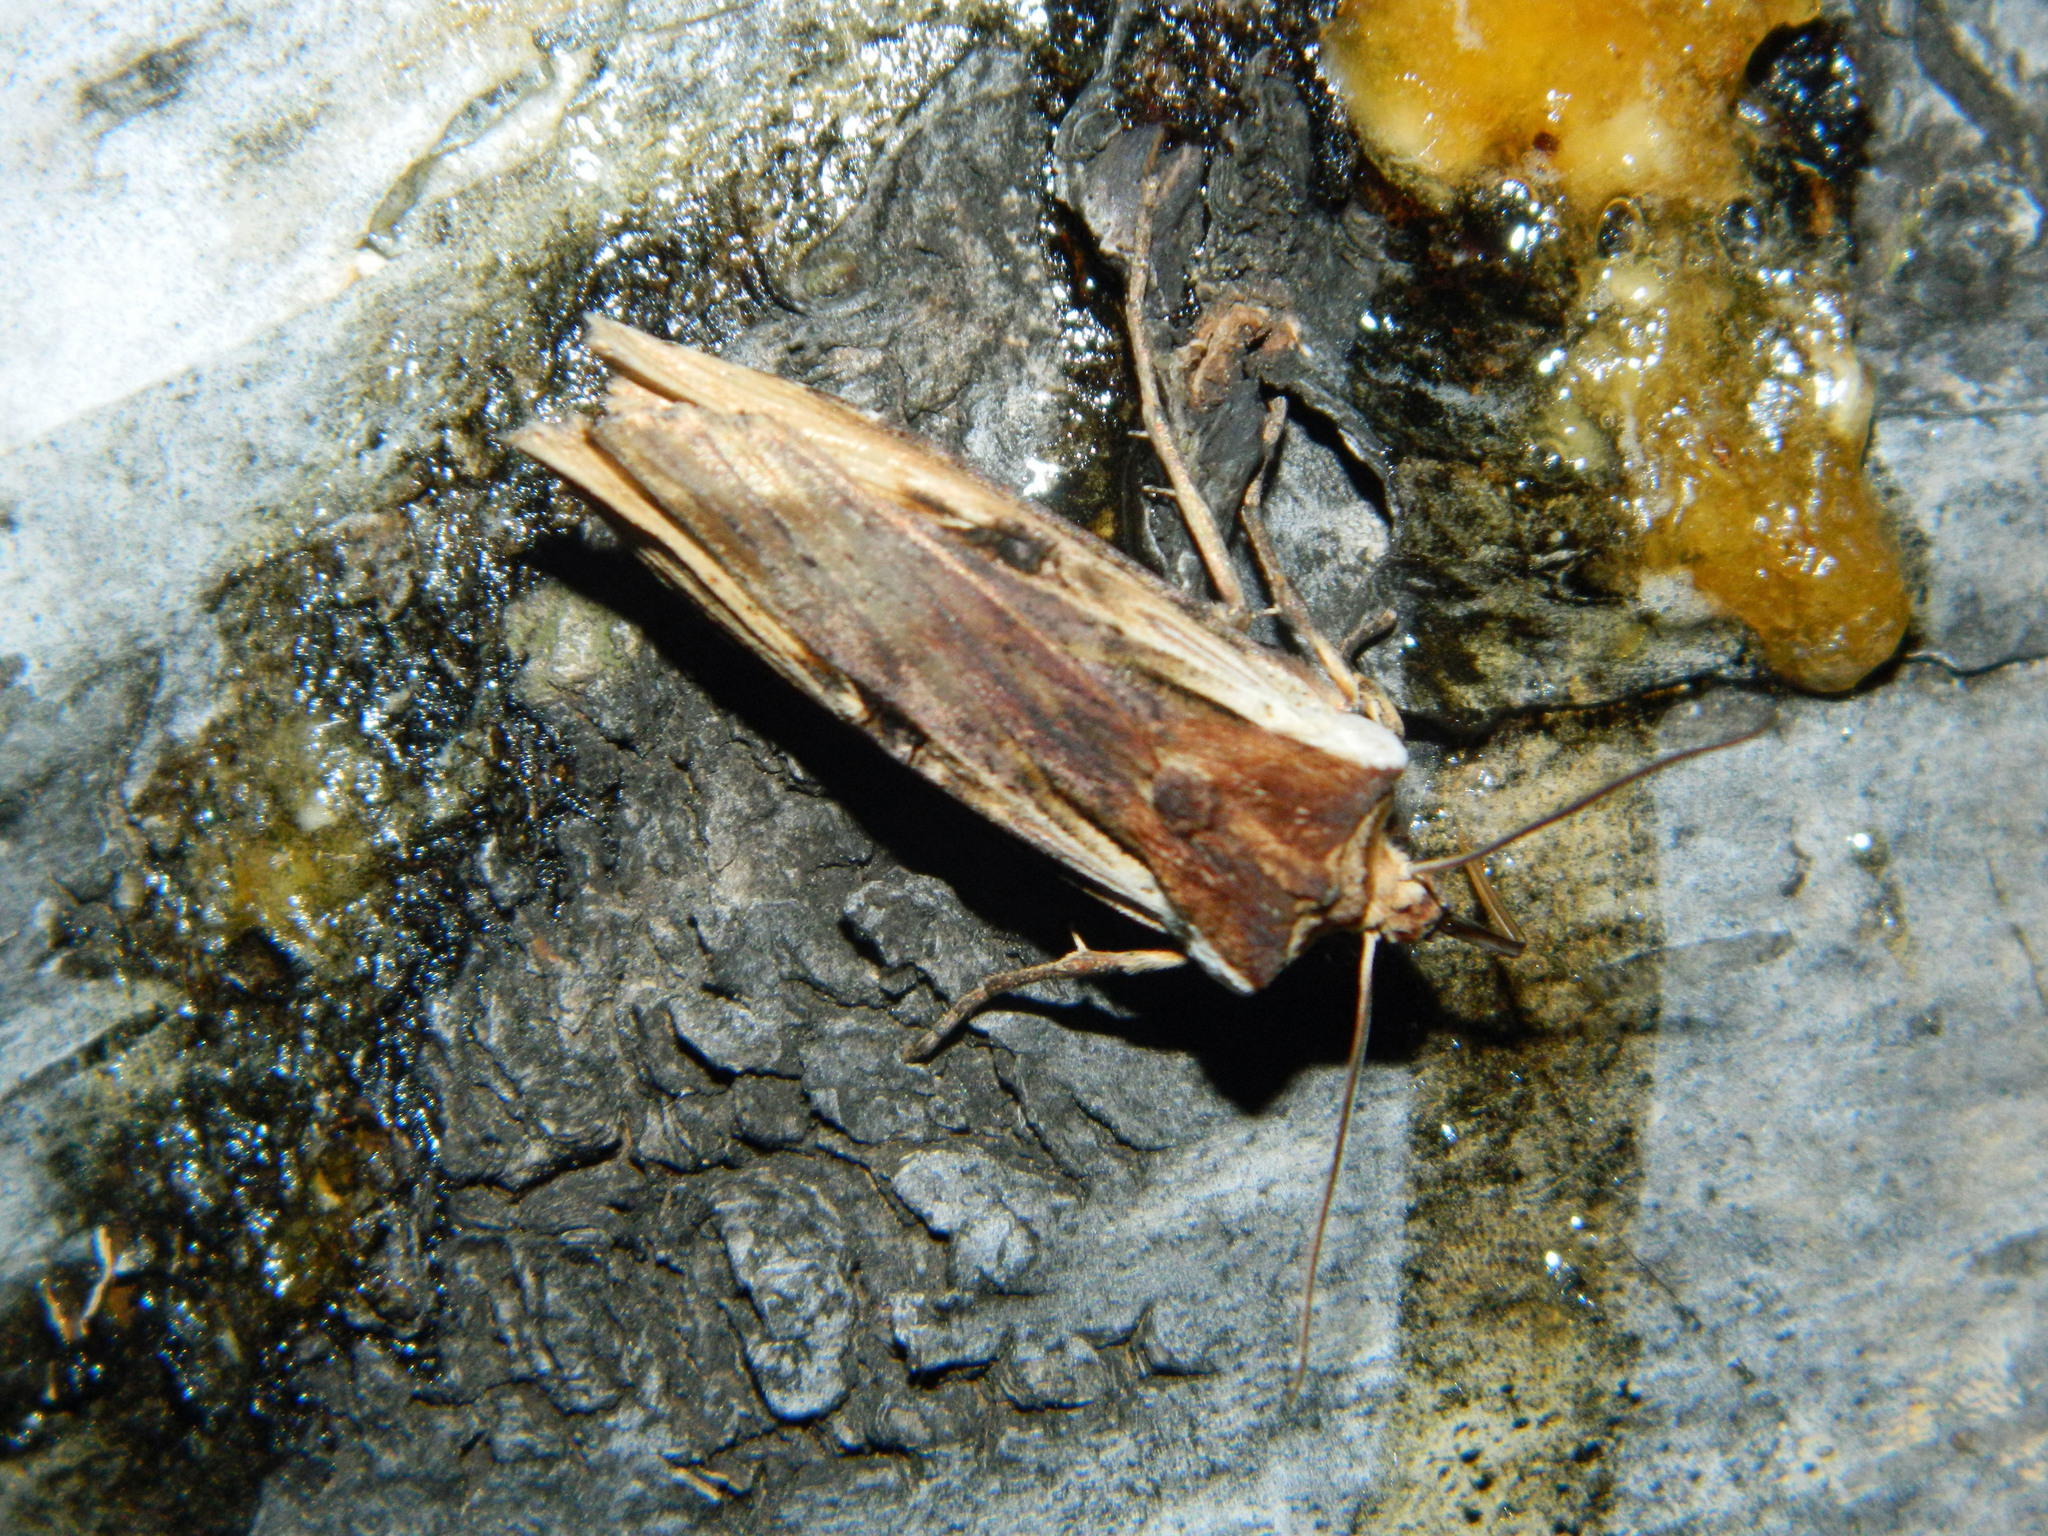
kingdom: Animalia
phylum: Arthropoda
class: Insecta
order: Lepidoptera
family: Noctuidae
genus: Xylena
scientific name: Xylena curvimacula
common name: Dot-and-dash swordgrass moth
